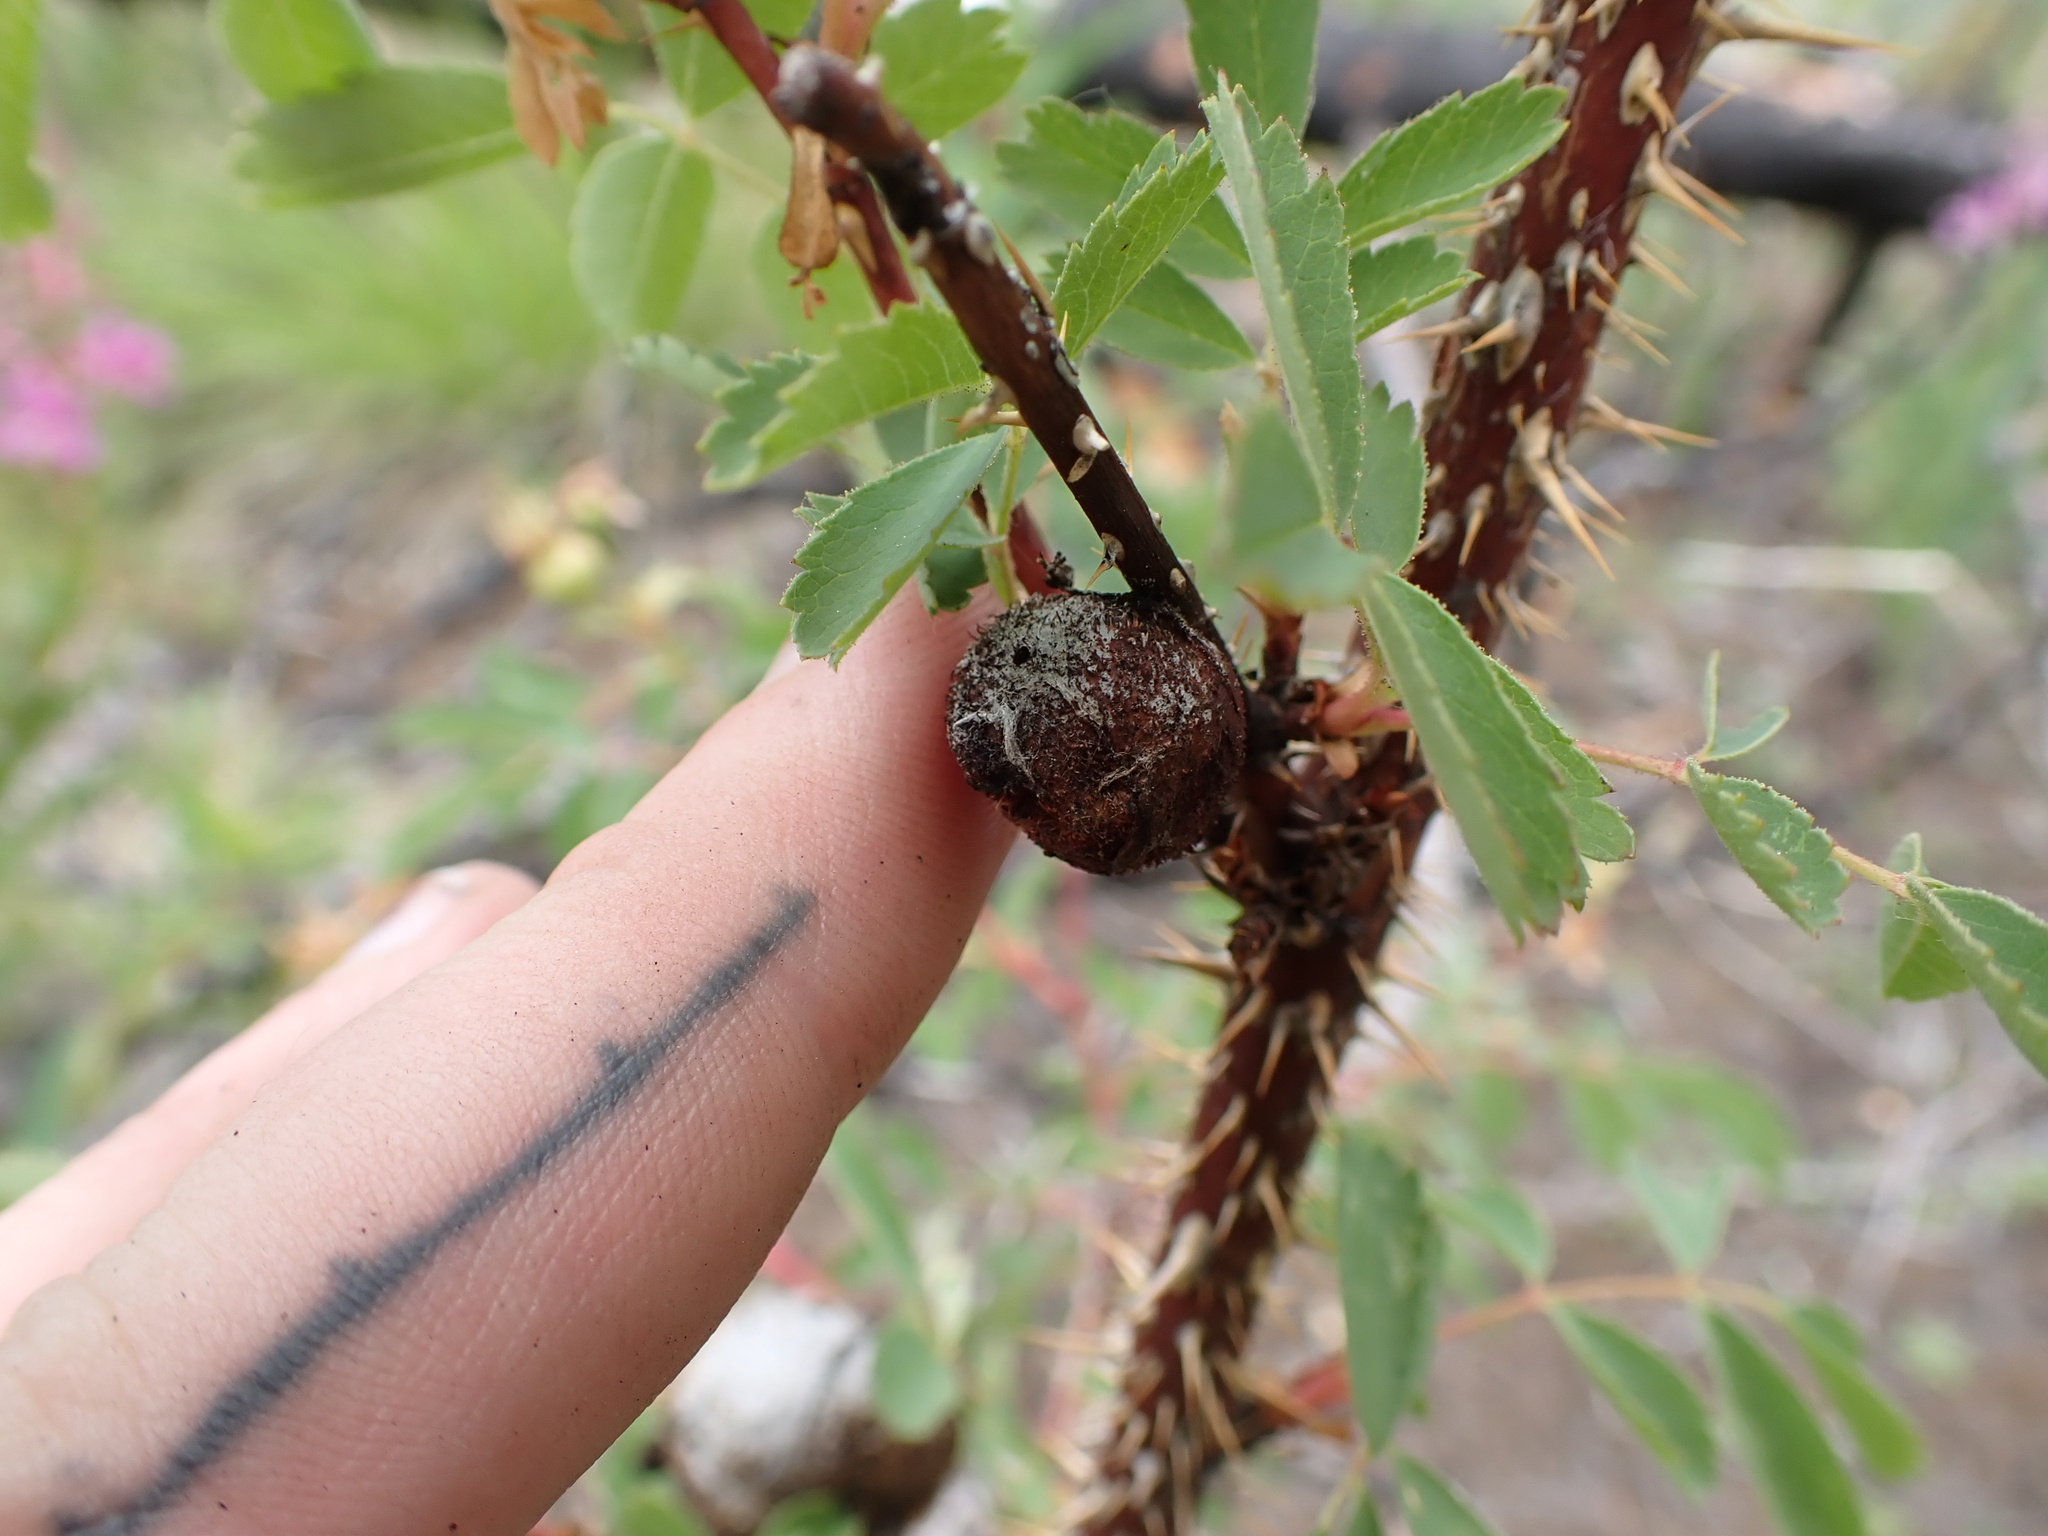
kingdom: Animalia
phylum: Arthropoda
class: Insecta
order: Hymenoptera
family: Cynipidae
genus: Diplolepis
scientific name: Diplolepis spinosa
